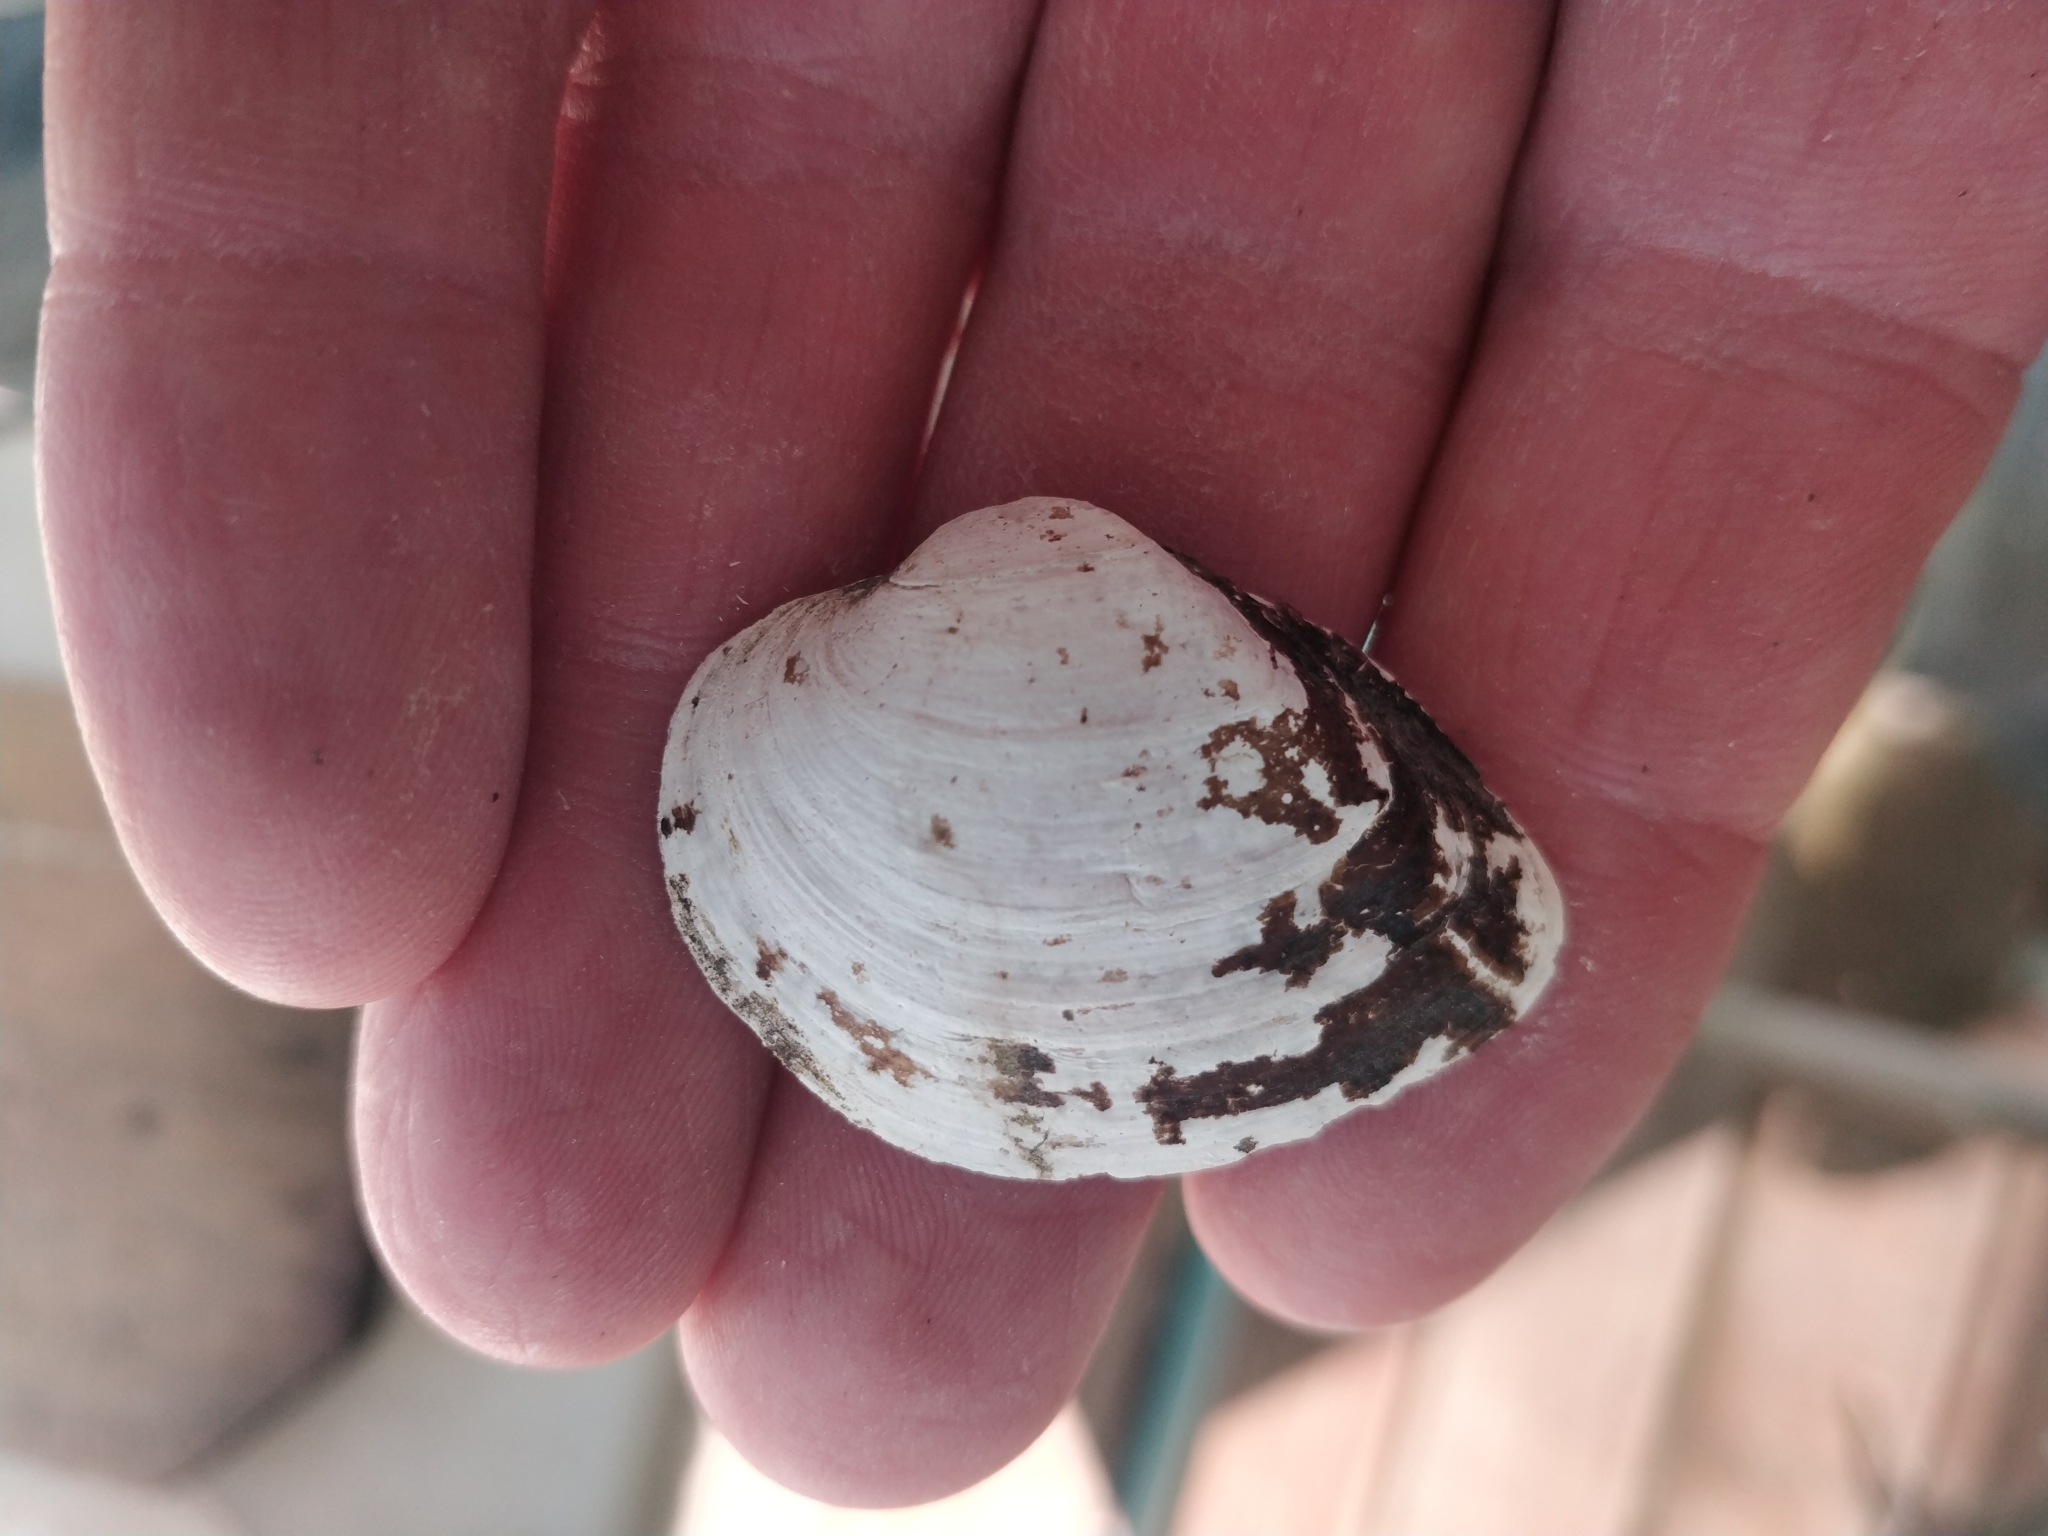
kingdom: Animalia
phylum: Mollusca
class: Bivalvia
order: Unionida
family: Unionidae
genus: Truncilla
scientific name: Truncilla truncata
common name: Deertoe
